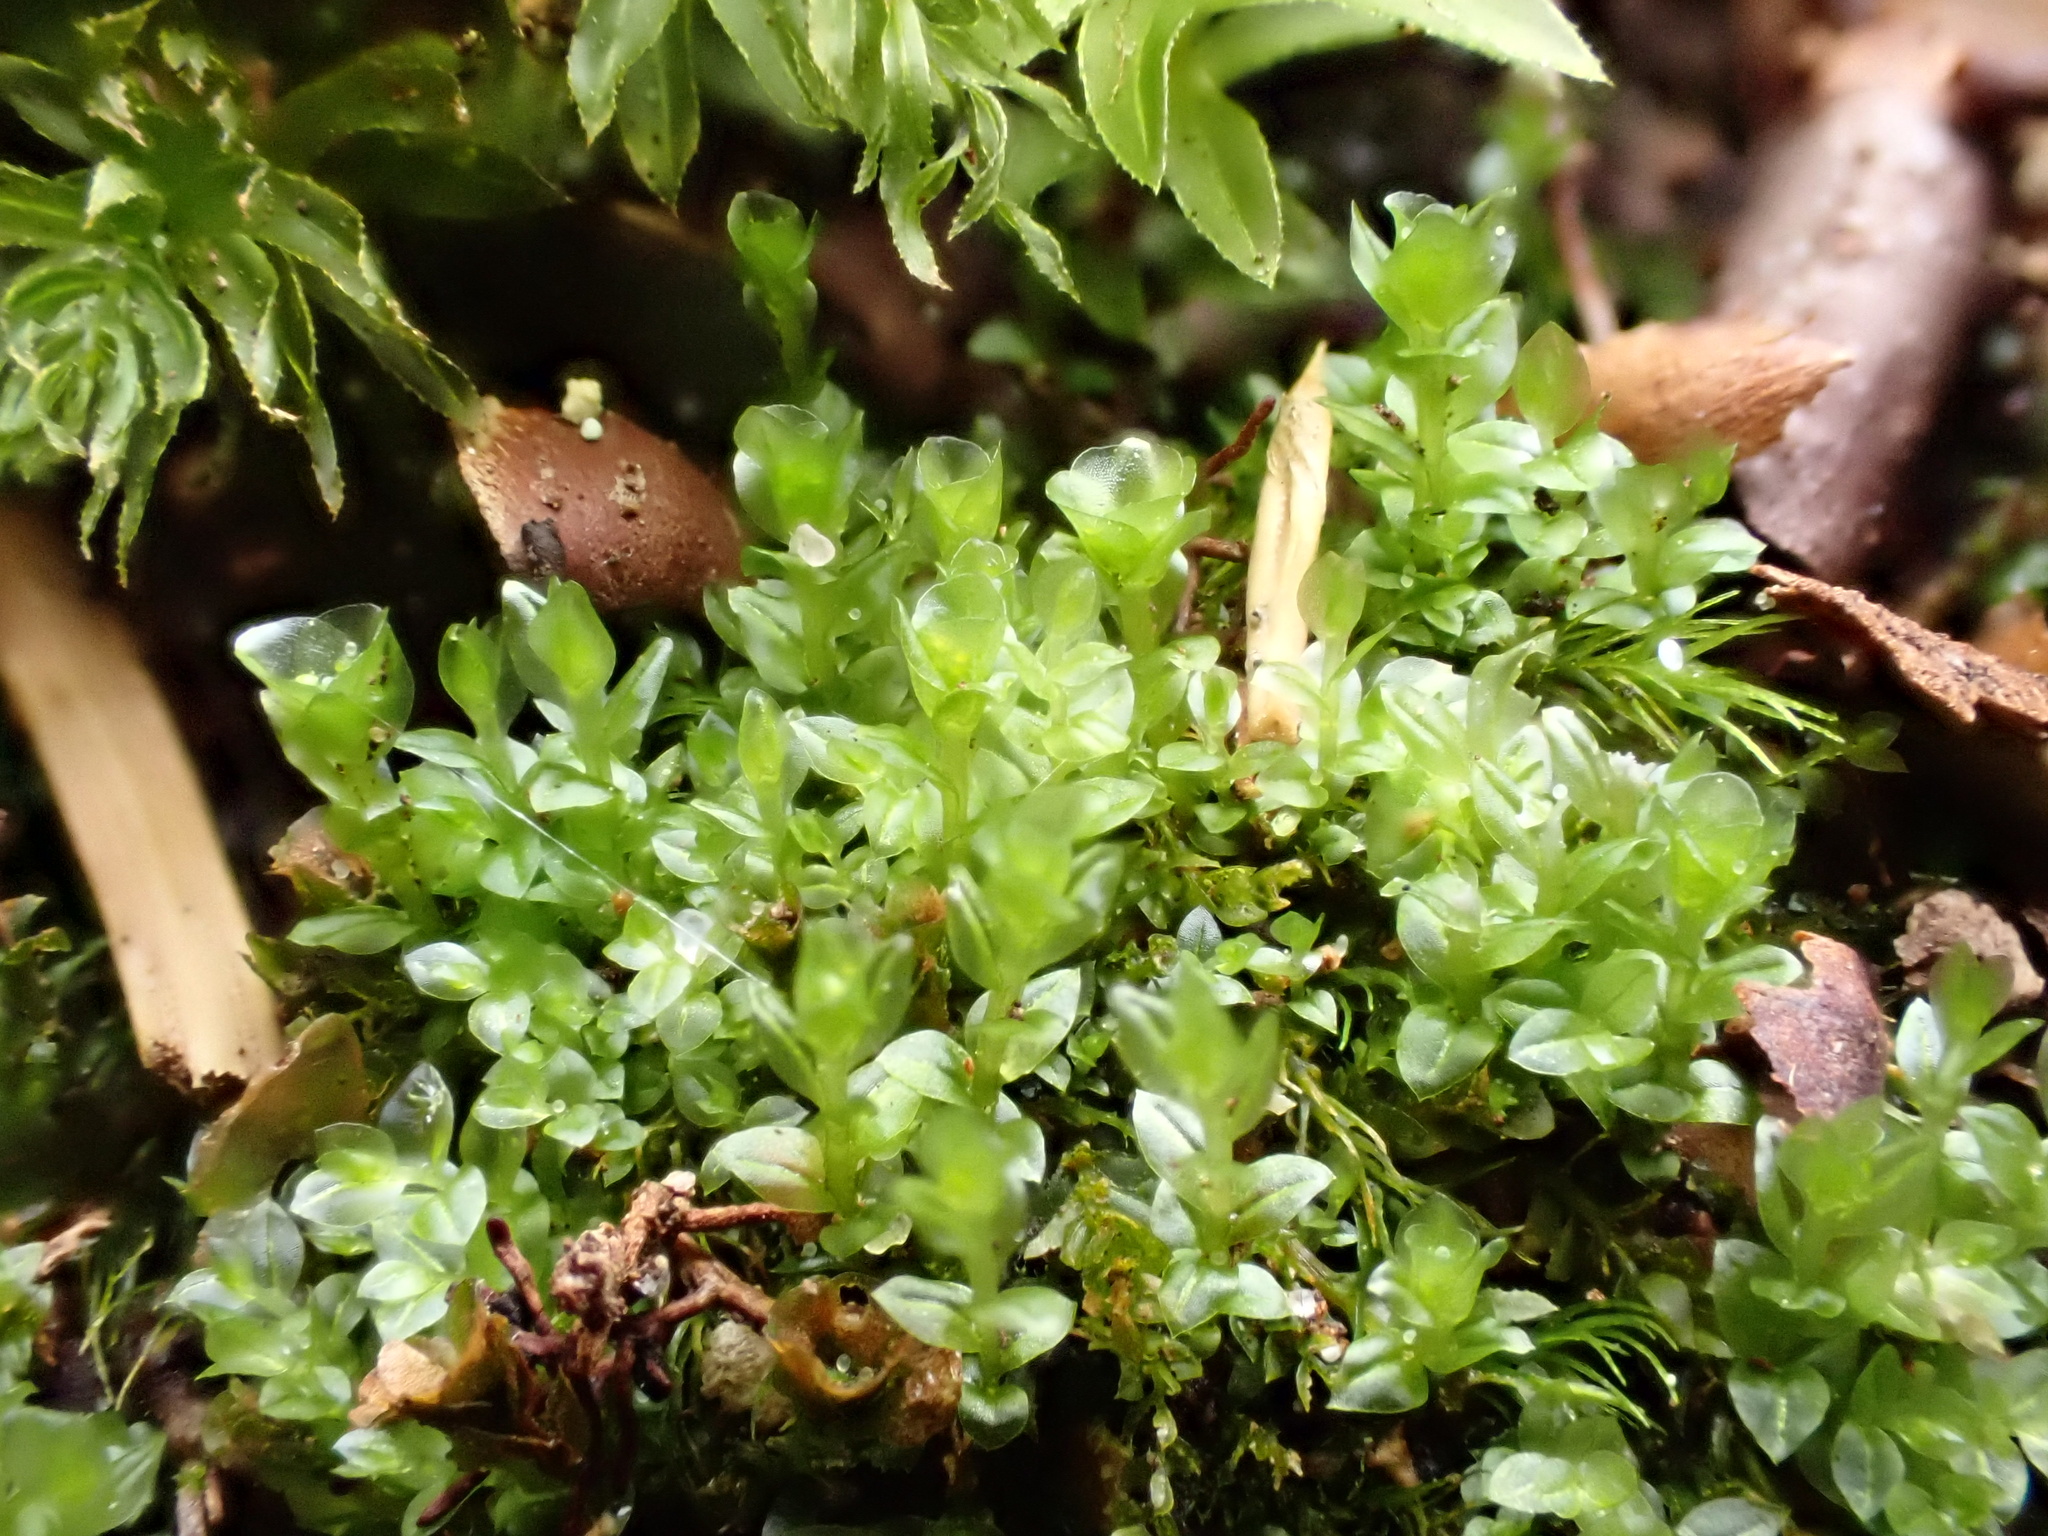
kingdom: Plantae
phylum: Bryophyta
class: Polytrichopsida
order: Tetraphidales
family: Tetraphidaceae
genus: Tetraphis
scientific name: Tetraphis pellucida
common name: Common four-toothed moss
